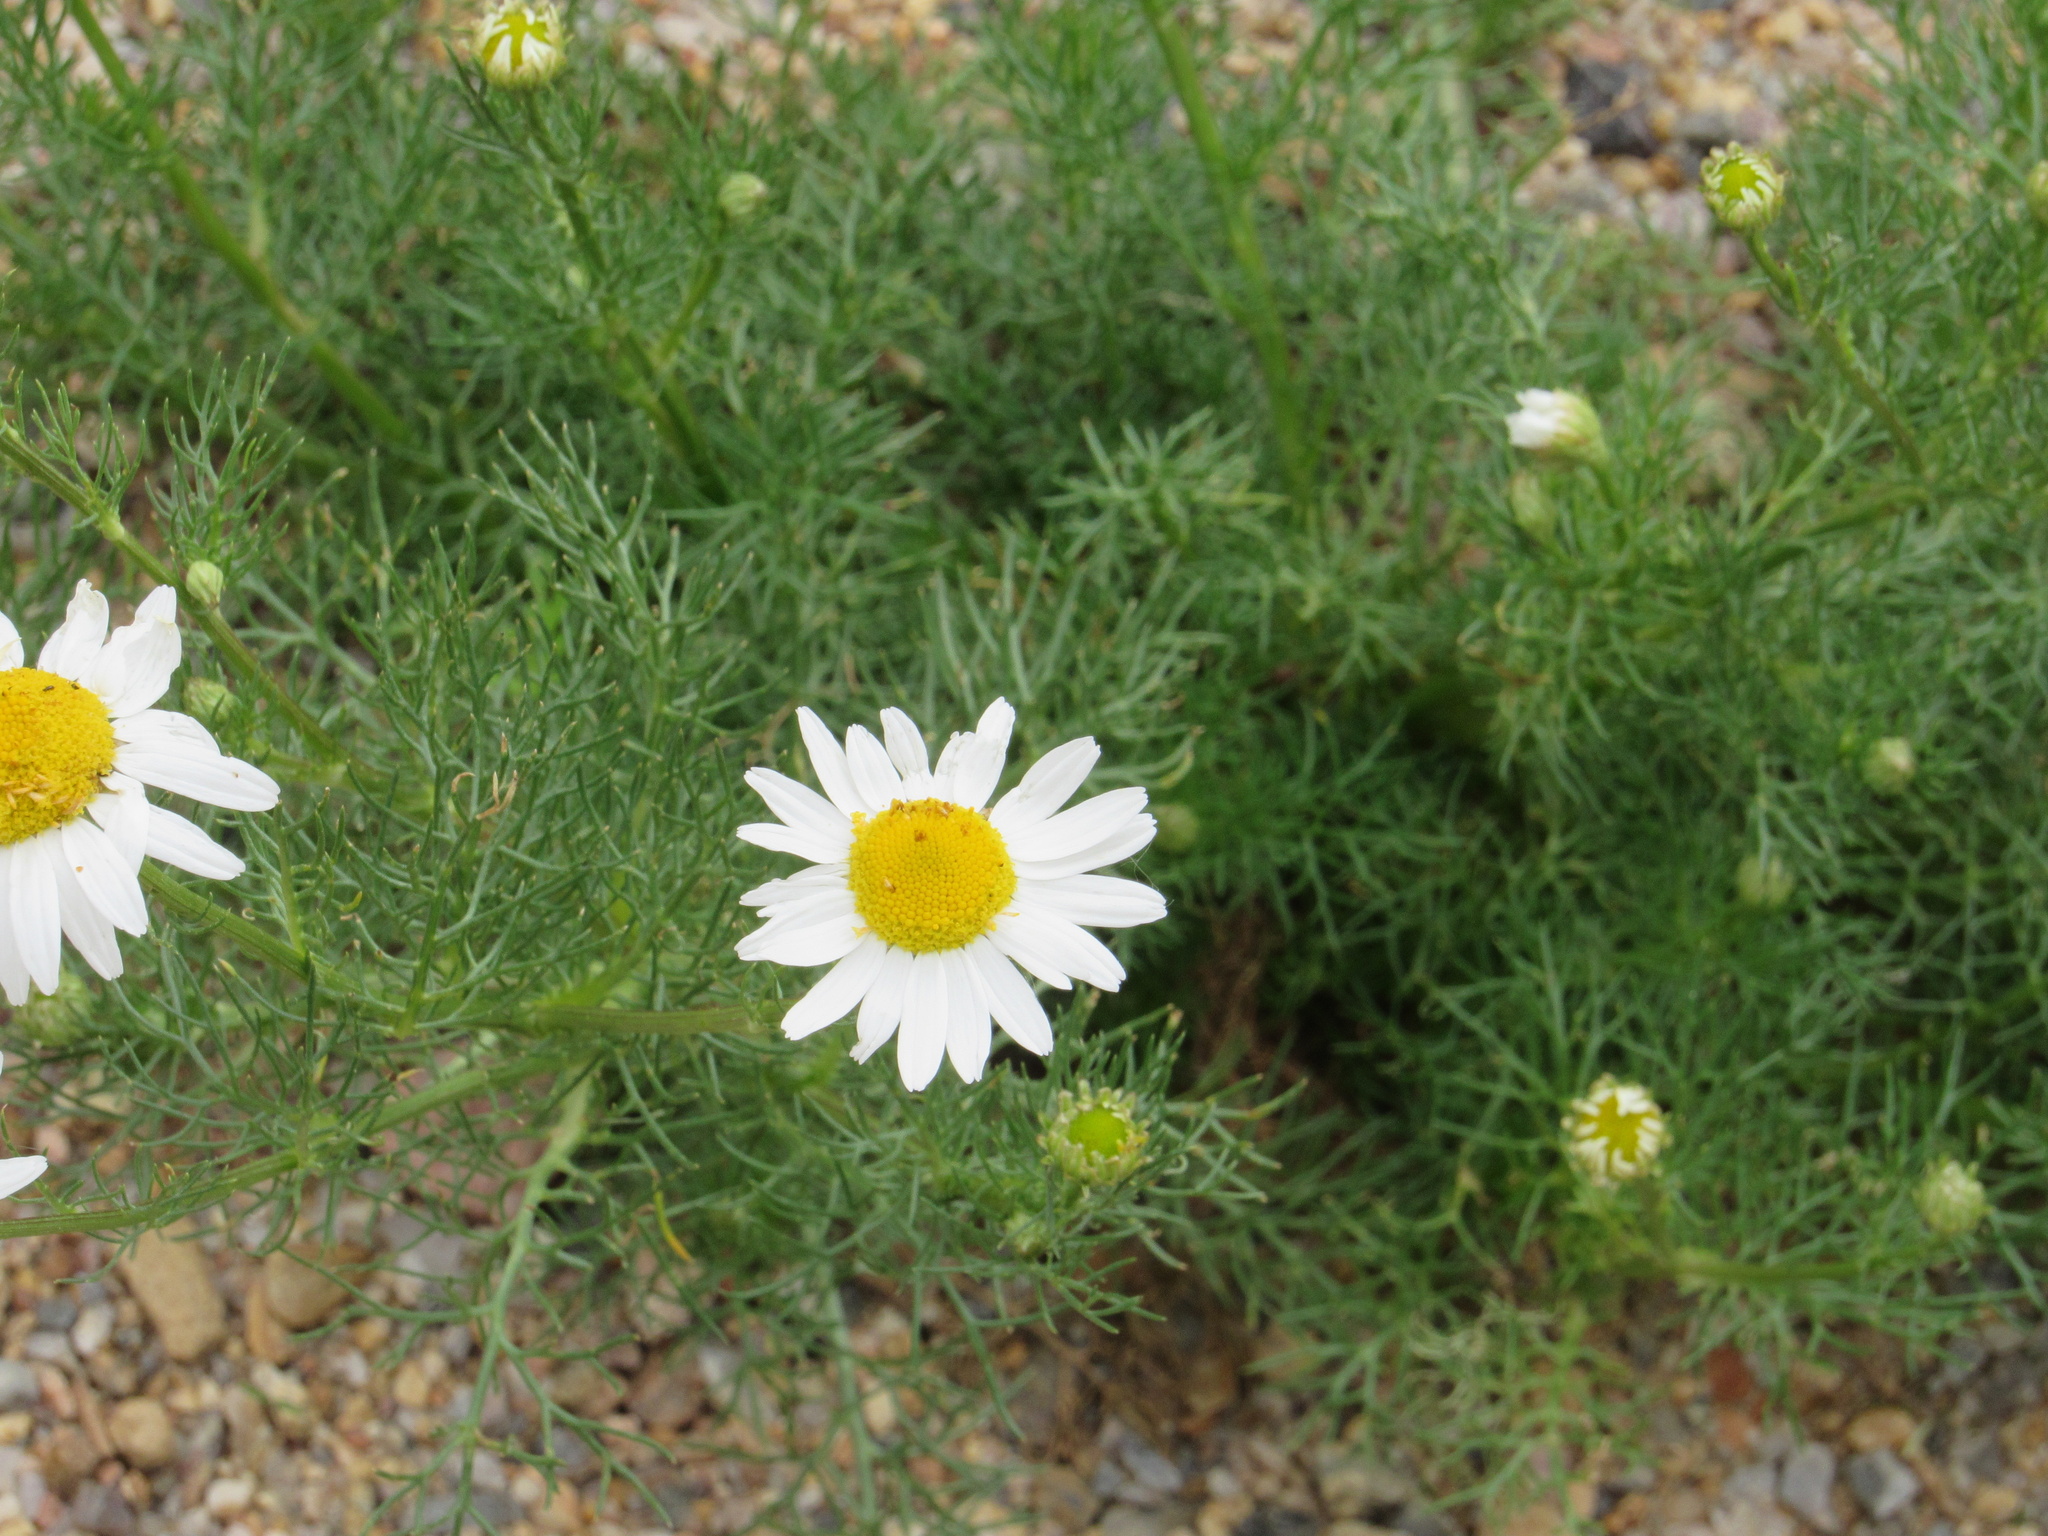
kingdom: Plantae
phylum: Tracheophyta
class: Magnoliopsida
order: Asterales
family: Asteraceae
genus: Tripleurospermum
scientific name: Tripleurospermum inodorum
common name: Scentless mayweed
